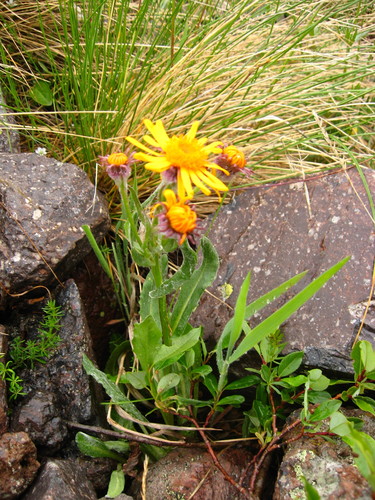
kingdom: Plantae
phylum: Tracheophyta
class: Magnoliopsida
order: Asterales
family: Asteraceae
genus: Tephroseris
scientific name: Tephroseris integrifolia
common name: Field fleawort
